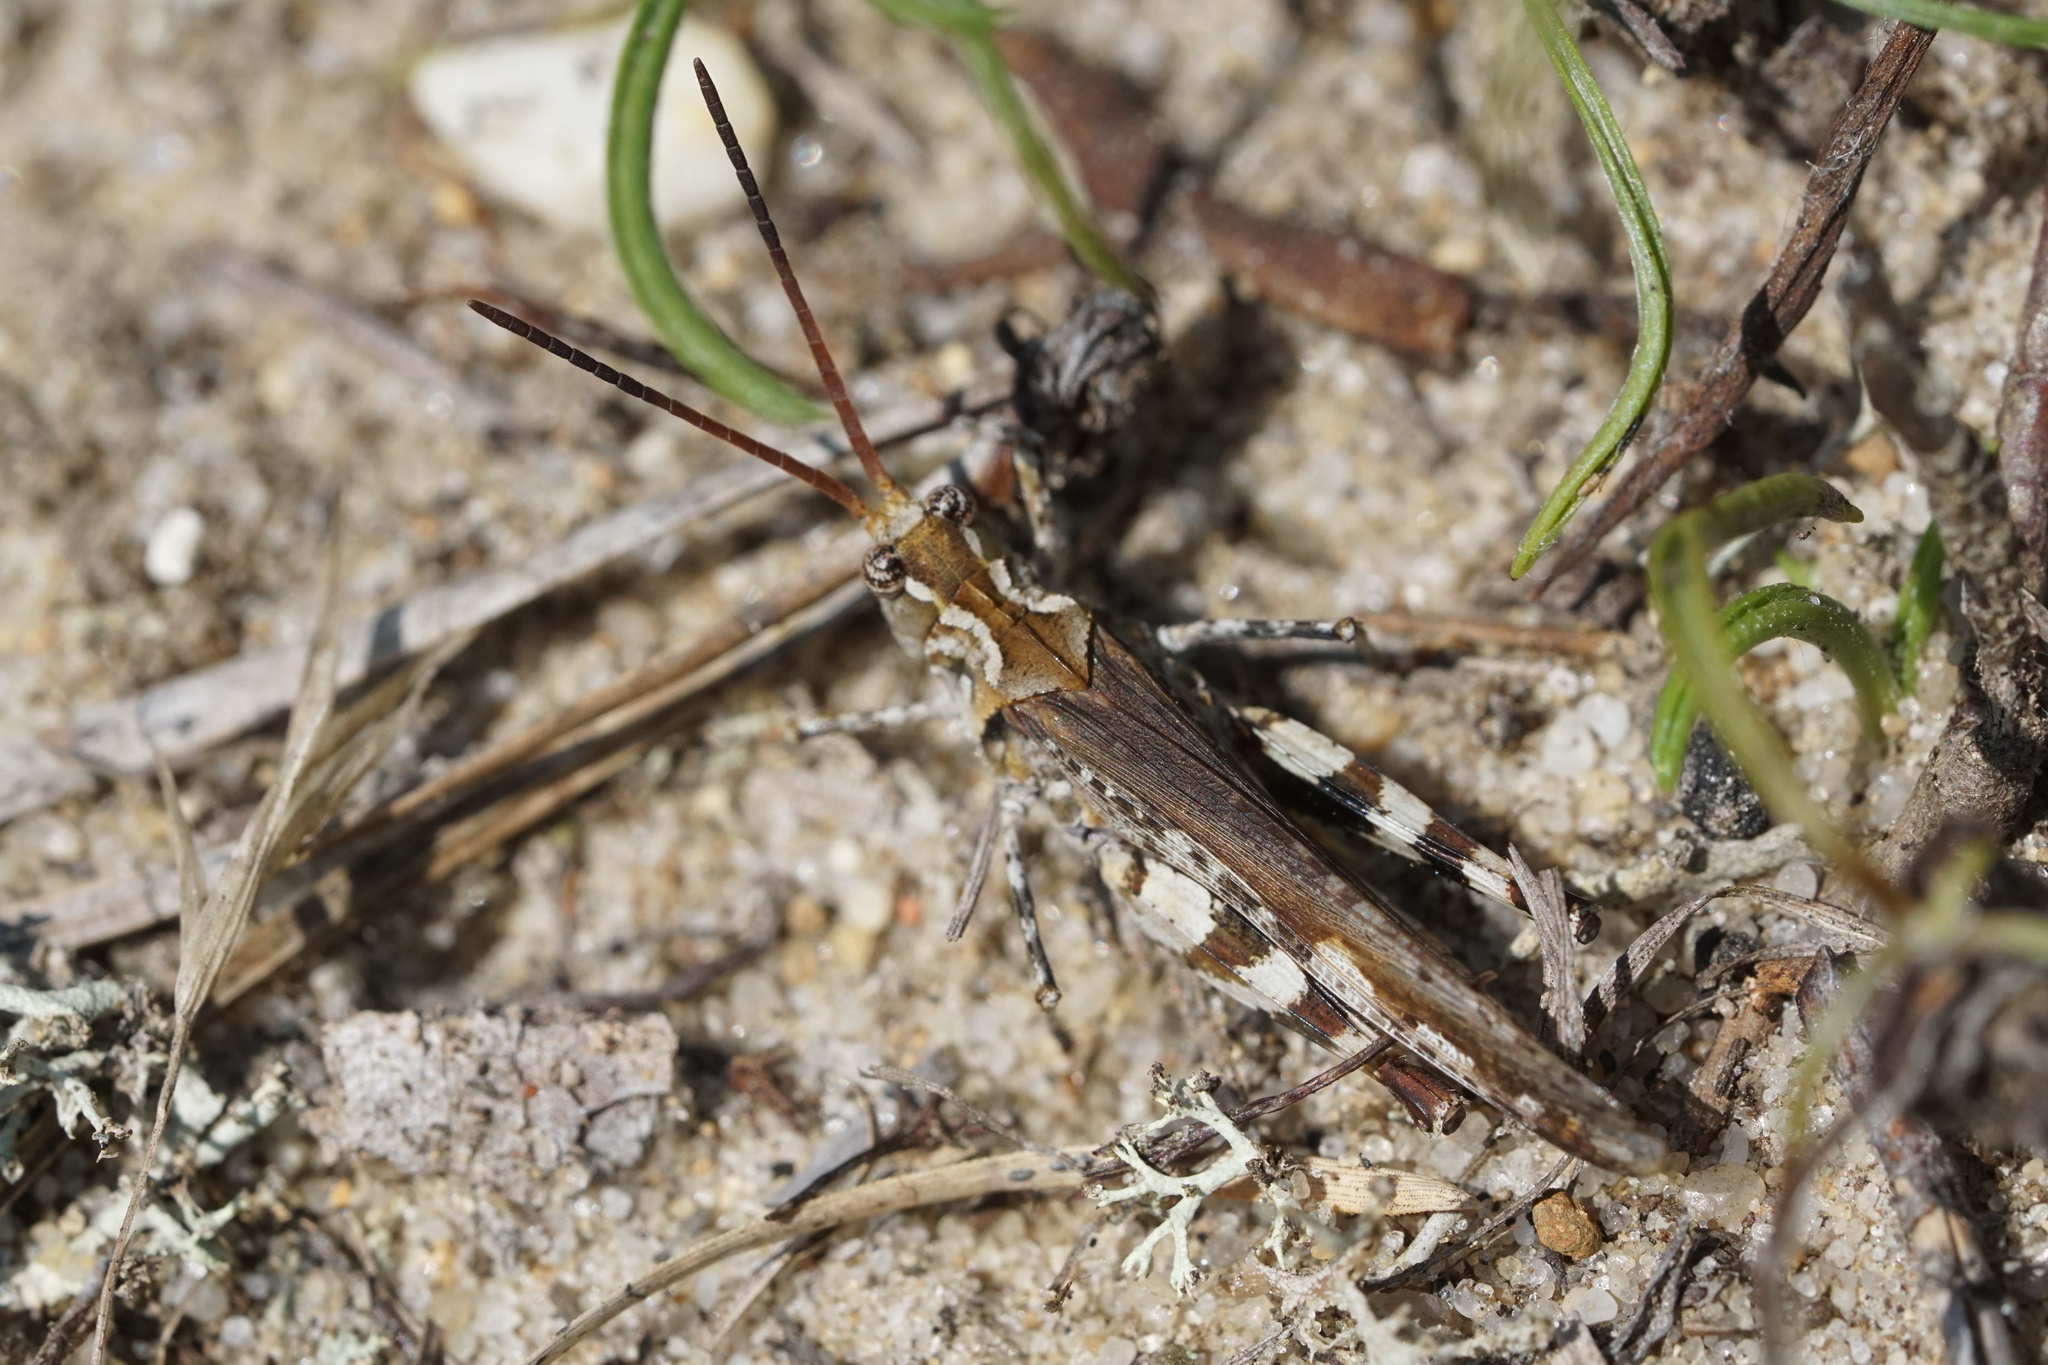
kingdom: Animalia
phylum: Arthropoda
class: Insecta
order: Orthoptera
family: Acrididae
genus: Psinidia
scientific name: Psinidia fenestralis
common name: Long-horned locust
